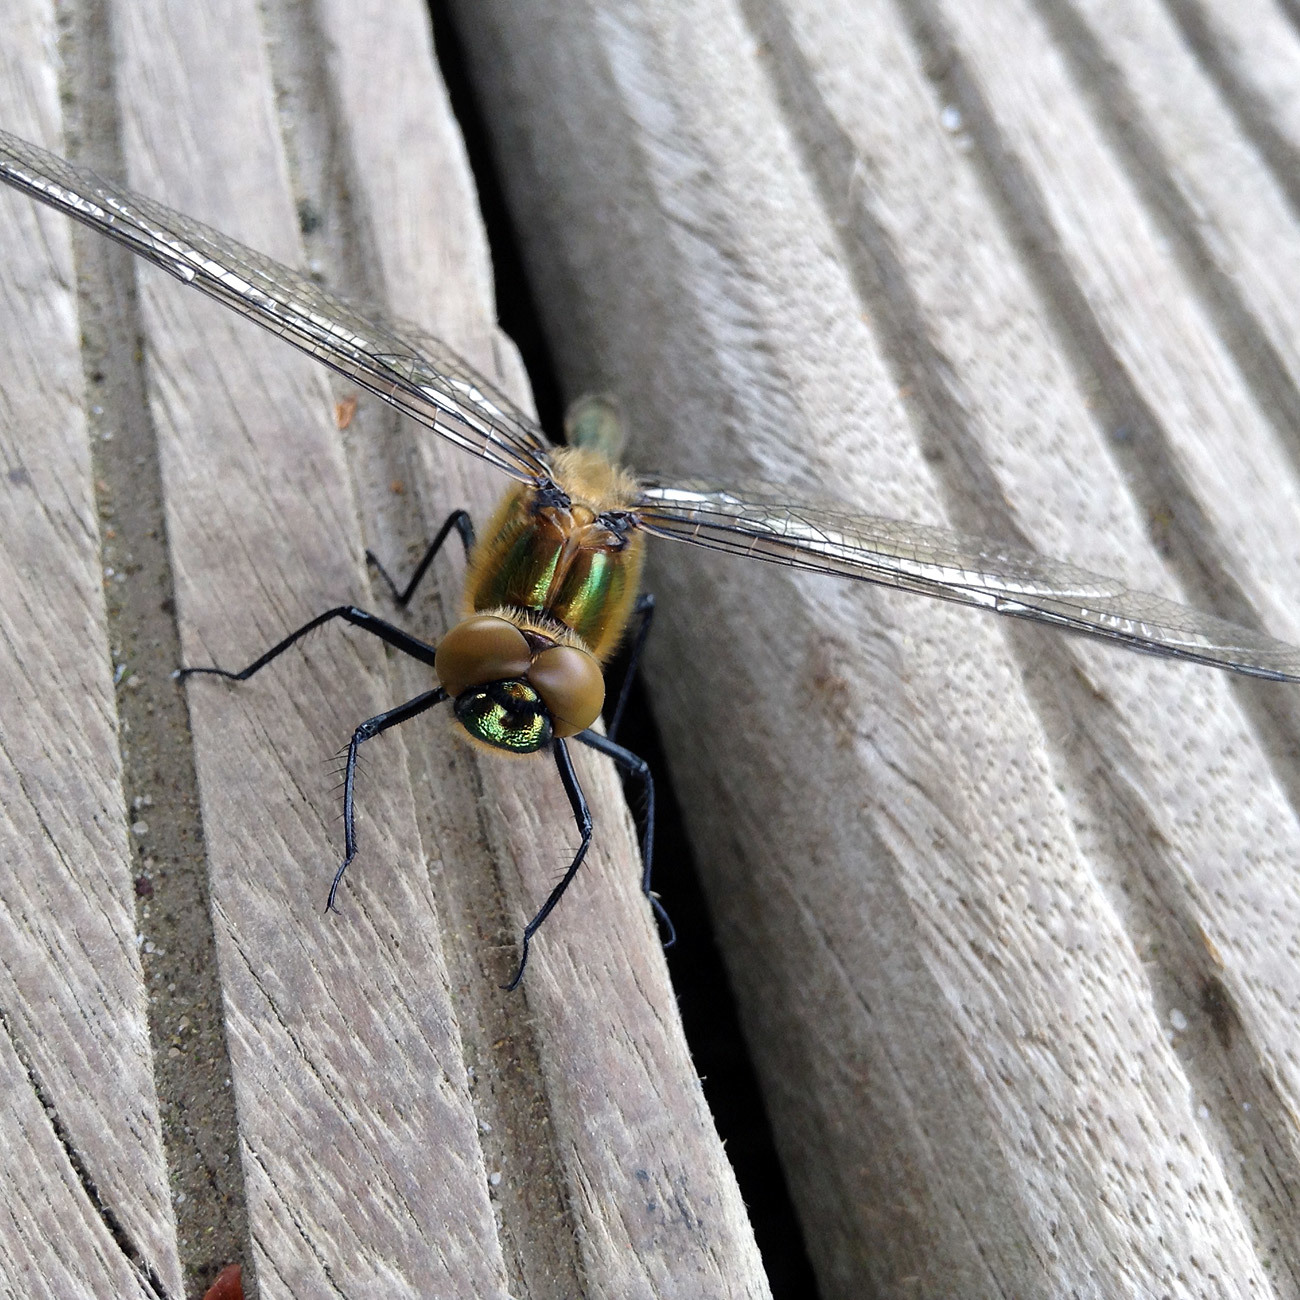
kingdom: Animalia
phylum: Arthropoda
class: Insecta
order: Odonata
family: Corduliidae
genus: Cordulia
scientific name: Cordulia aenea
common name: Downy emerald
